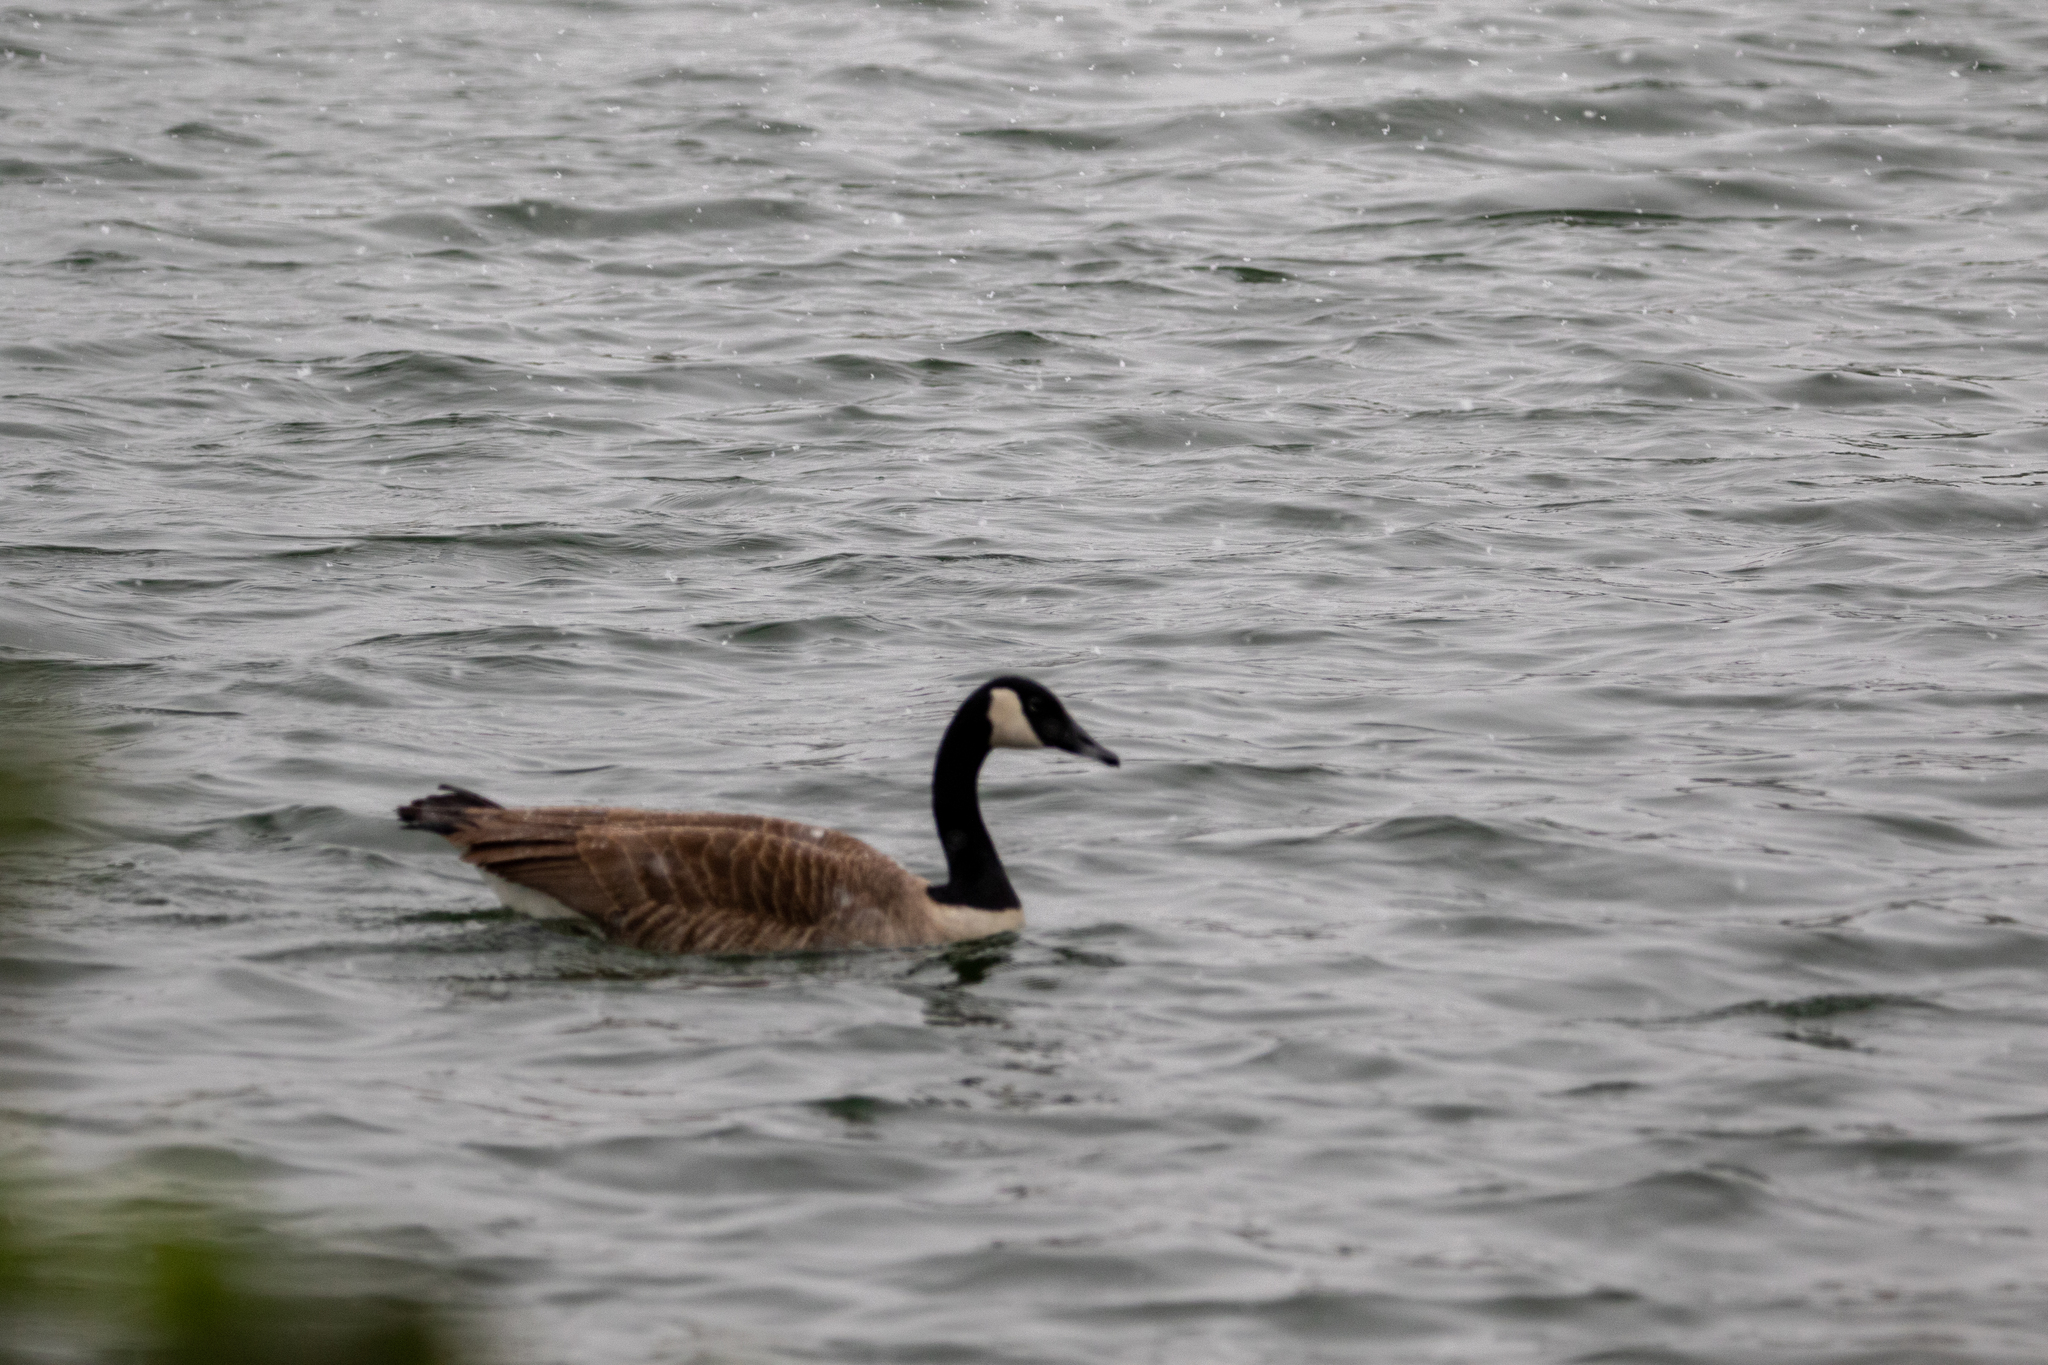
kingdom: Animalia
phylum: Chordata
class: Aves
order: Anseriformes
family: Anatidae
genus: Branta
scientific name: Branta canadensis
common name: Canada goose
